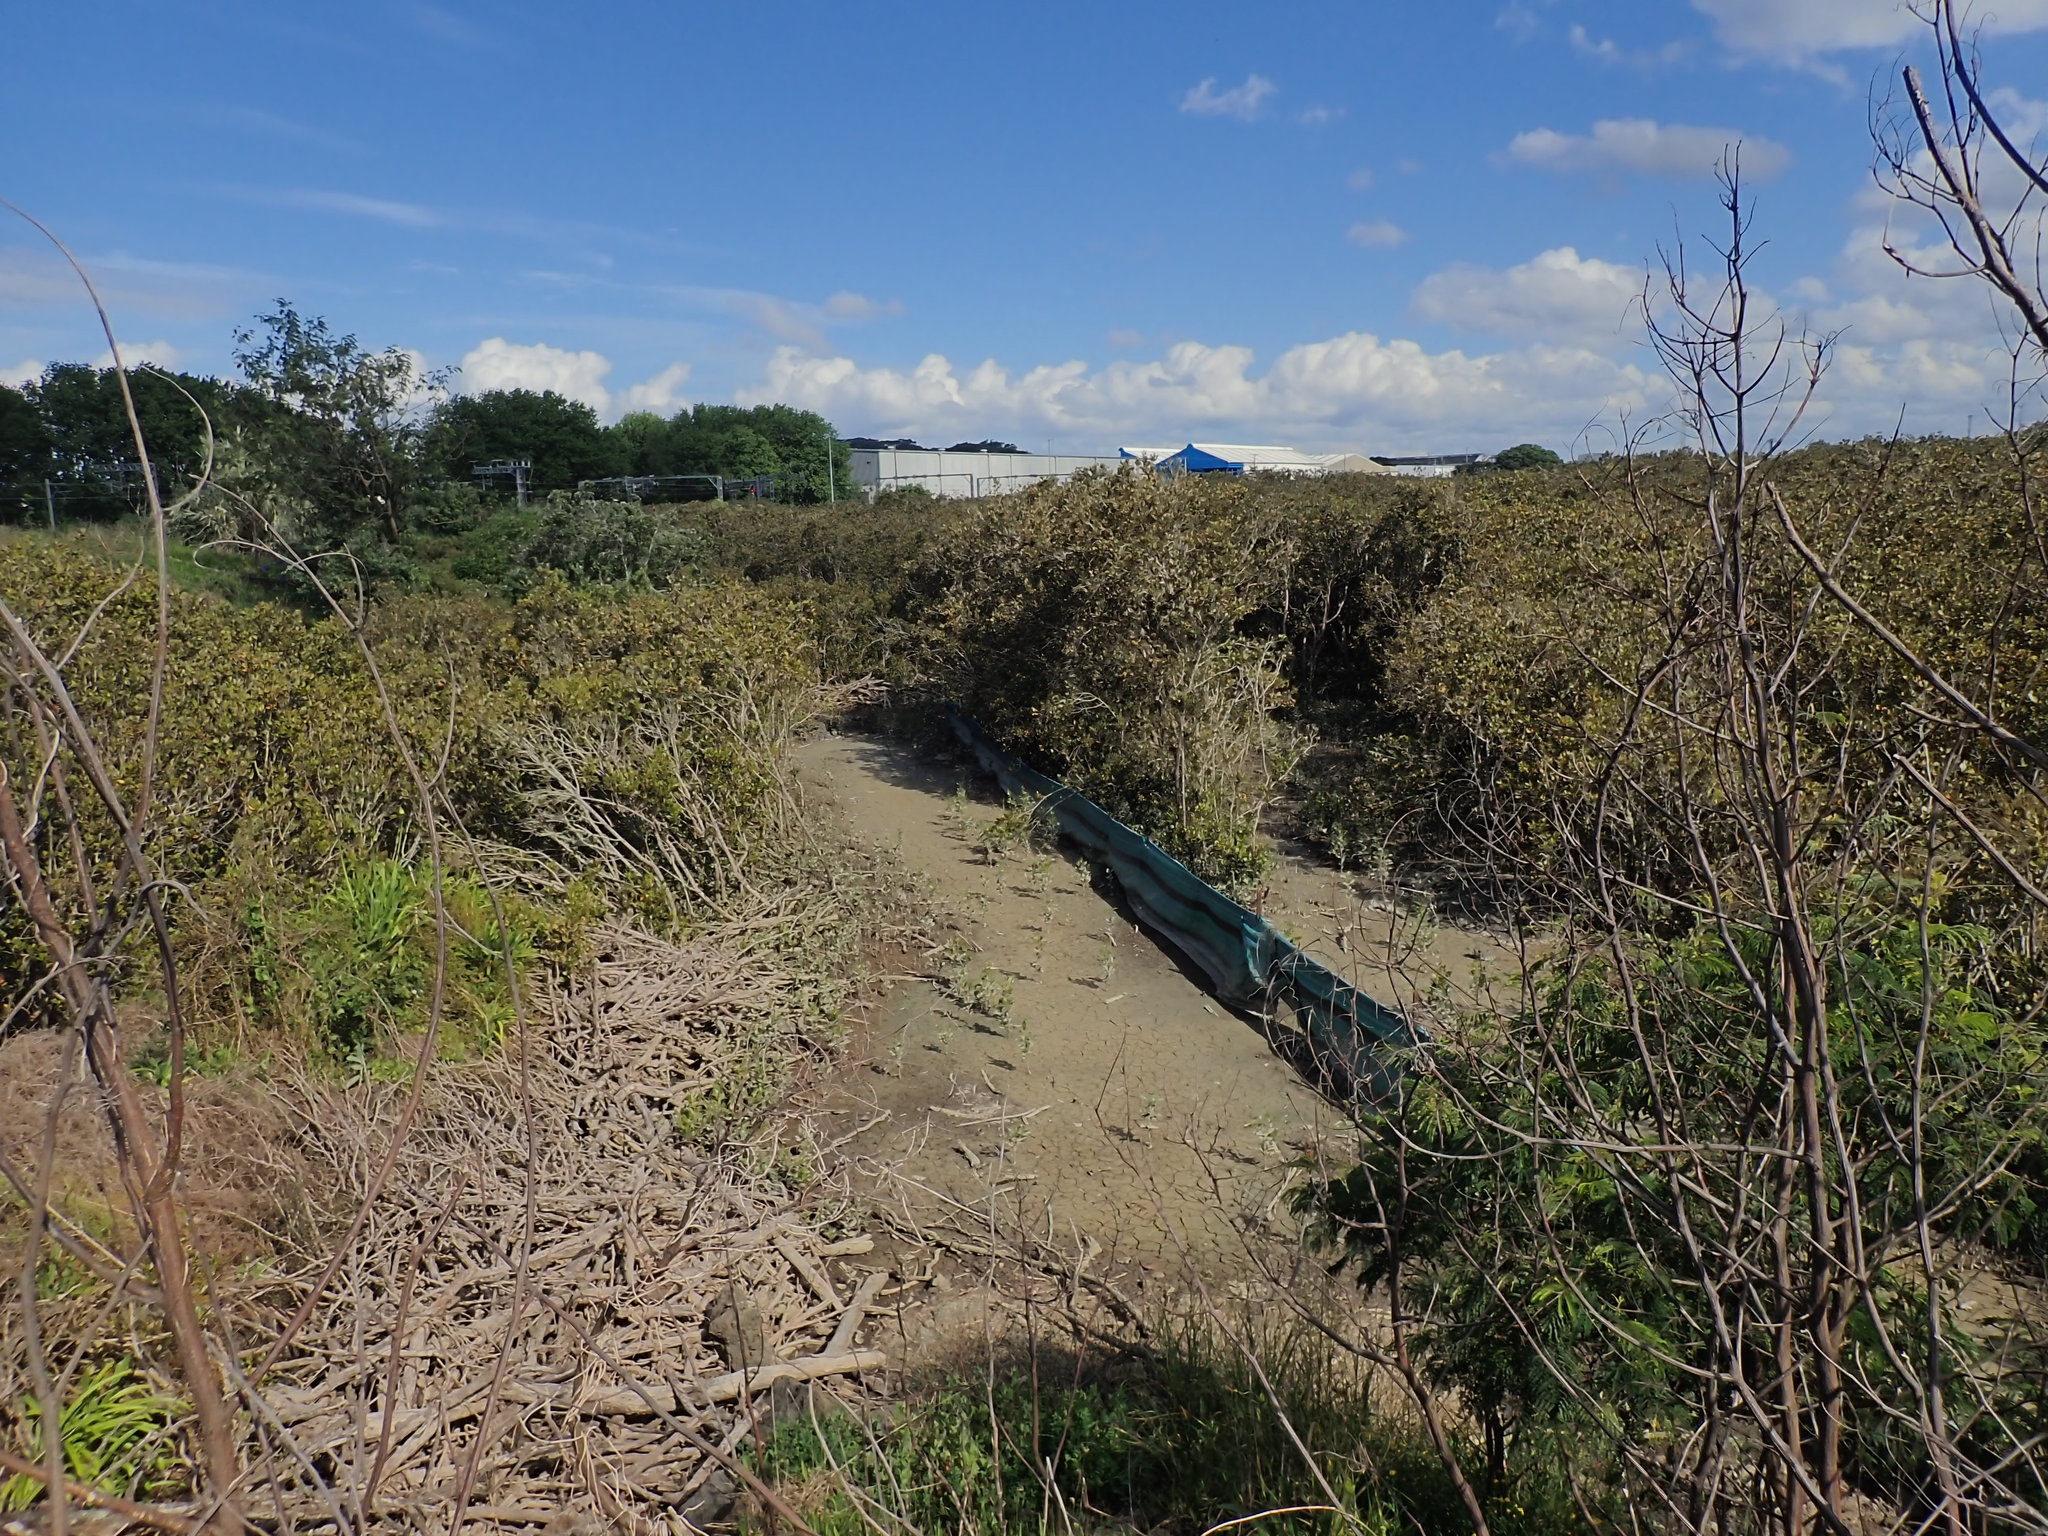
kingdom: Plantae
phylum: Tracheophyta
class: Magnoliopsida
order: Lamiales
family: Acanthaceae
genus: Avicennia
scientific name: Avicennia marina
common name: Gray mangrove
